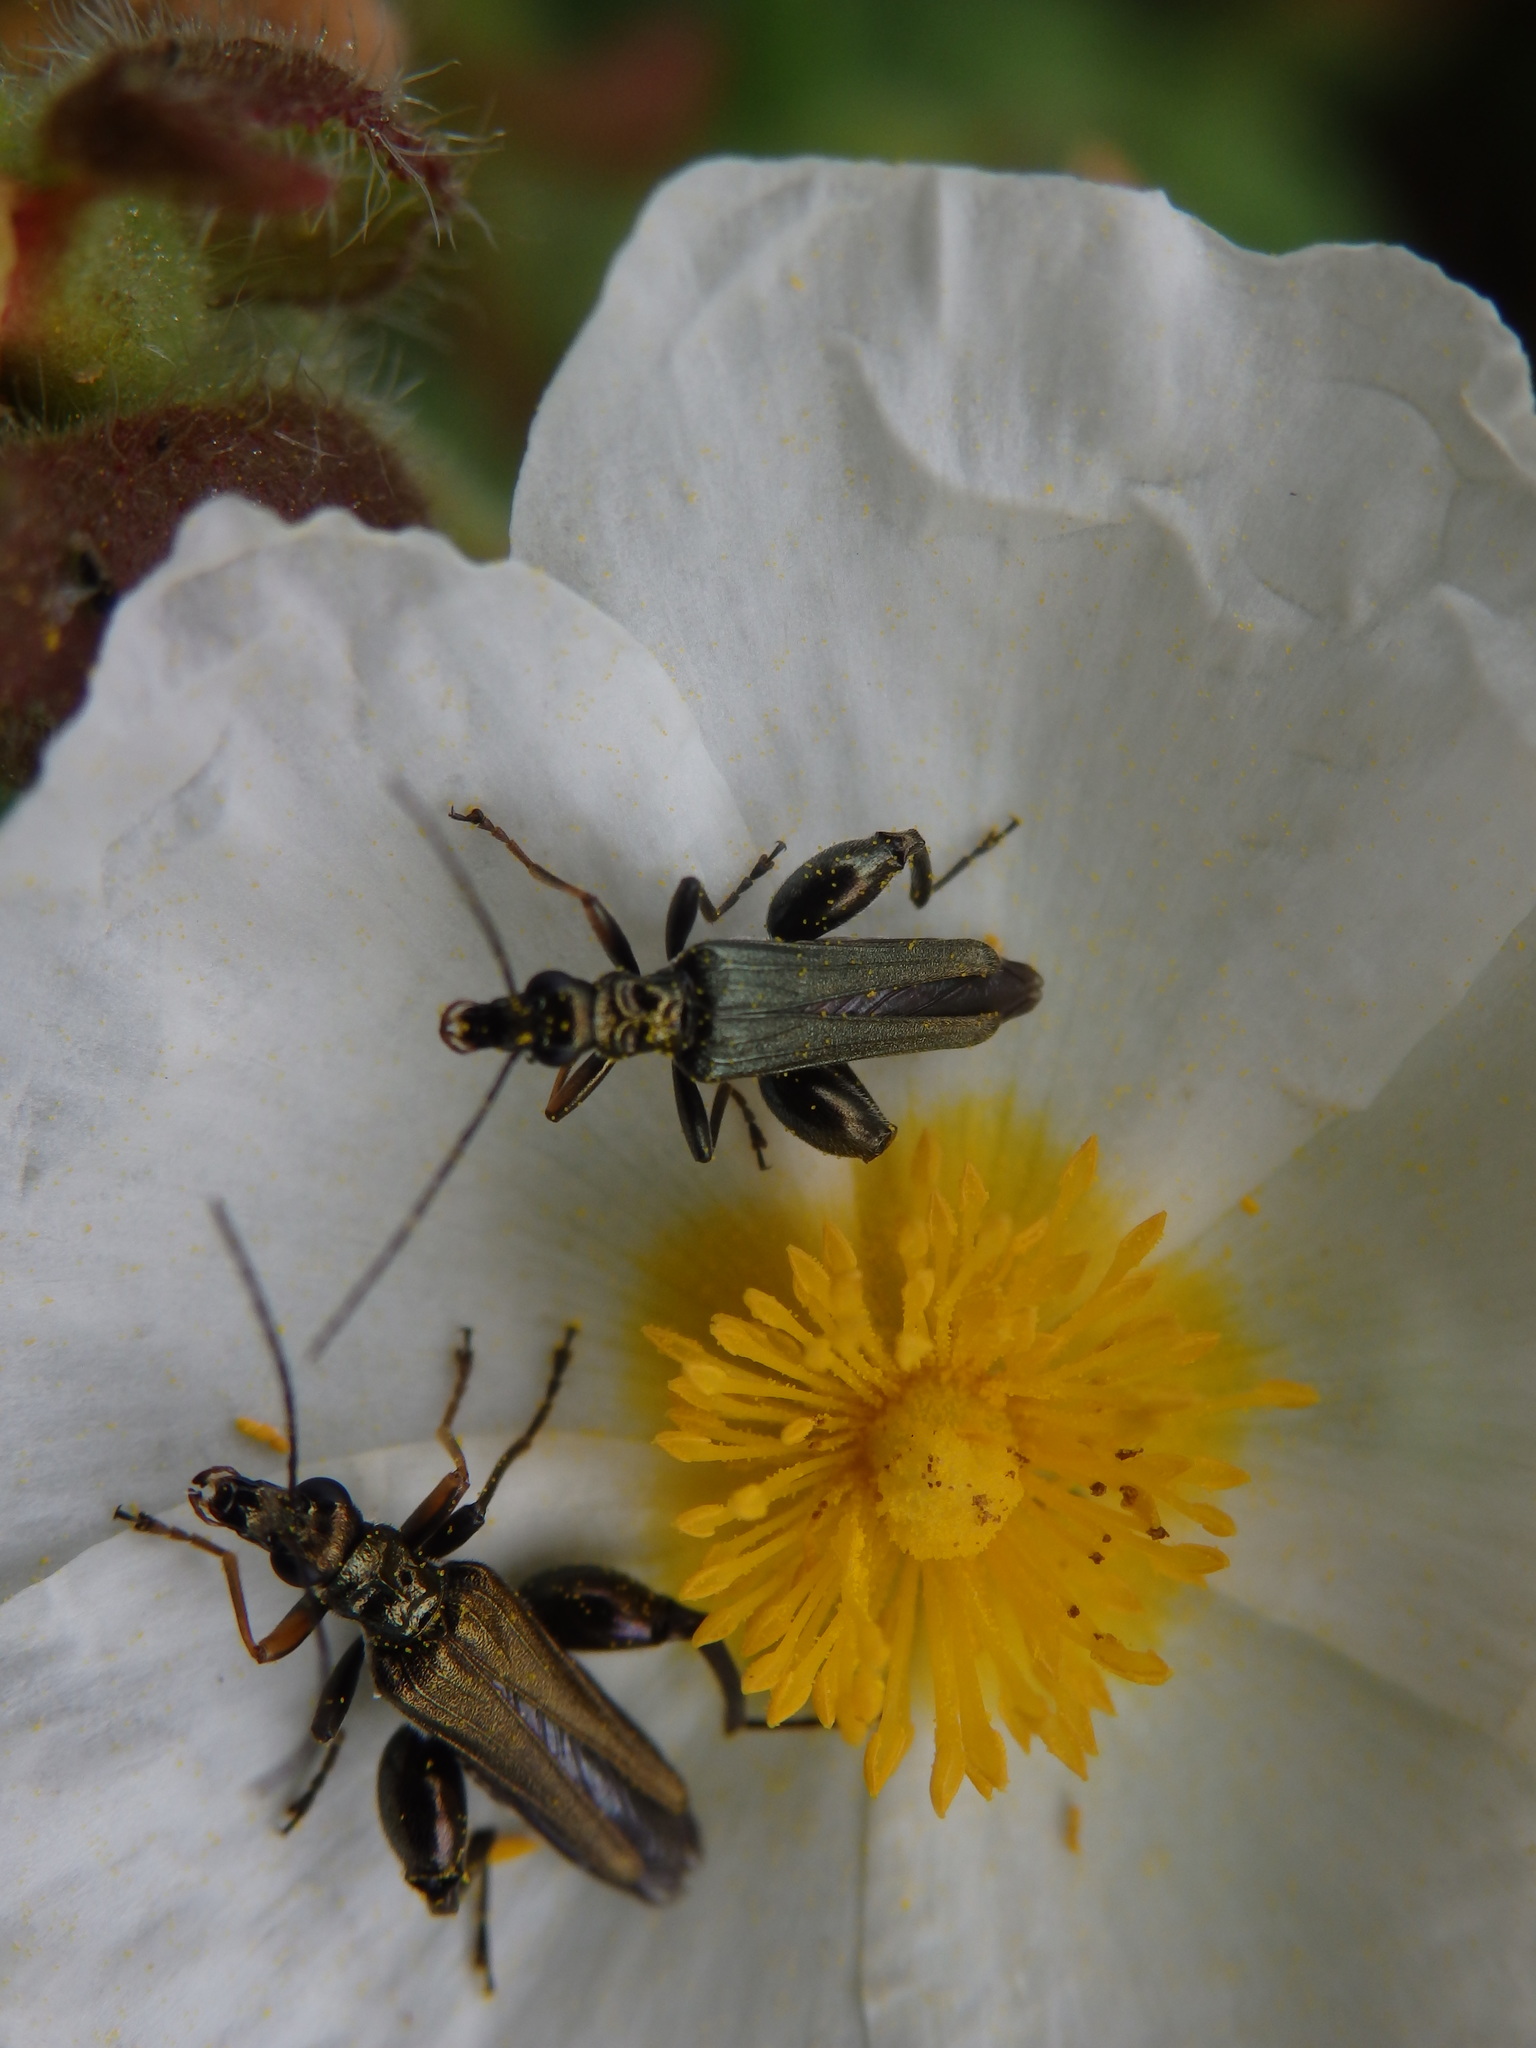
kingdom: Animalia
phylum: Arthropoda
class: Insecta
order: Coleoptera
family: Oedemeridae
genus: Oedemera
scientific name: Oedemera flavipes
